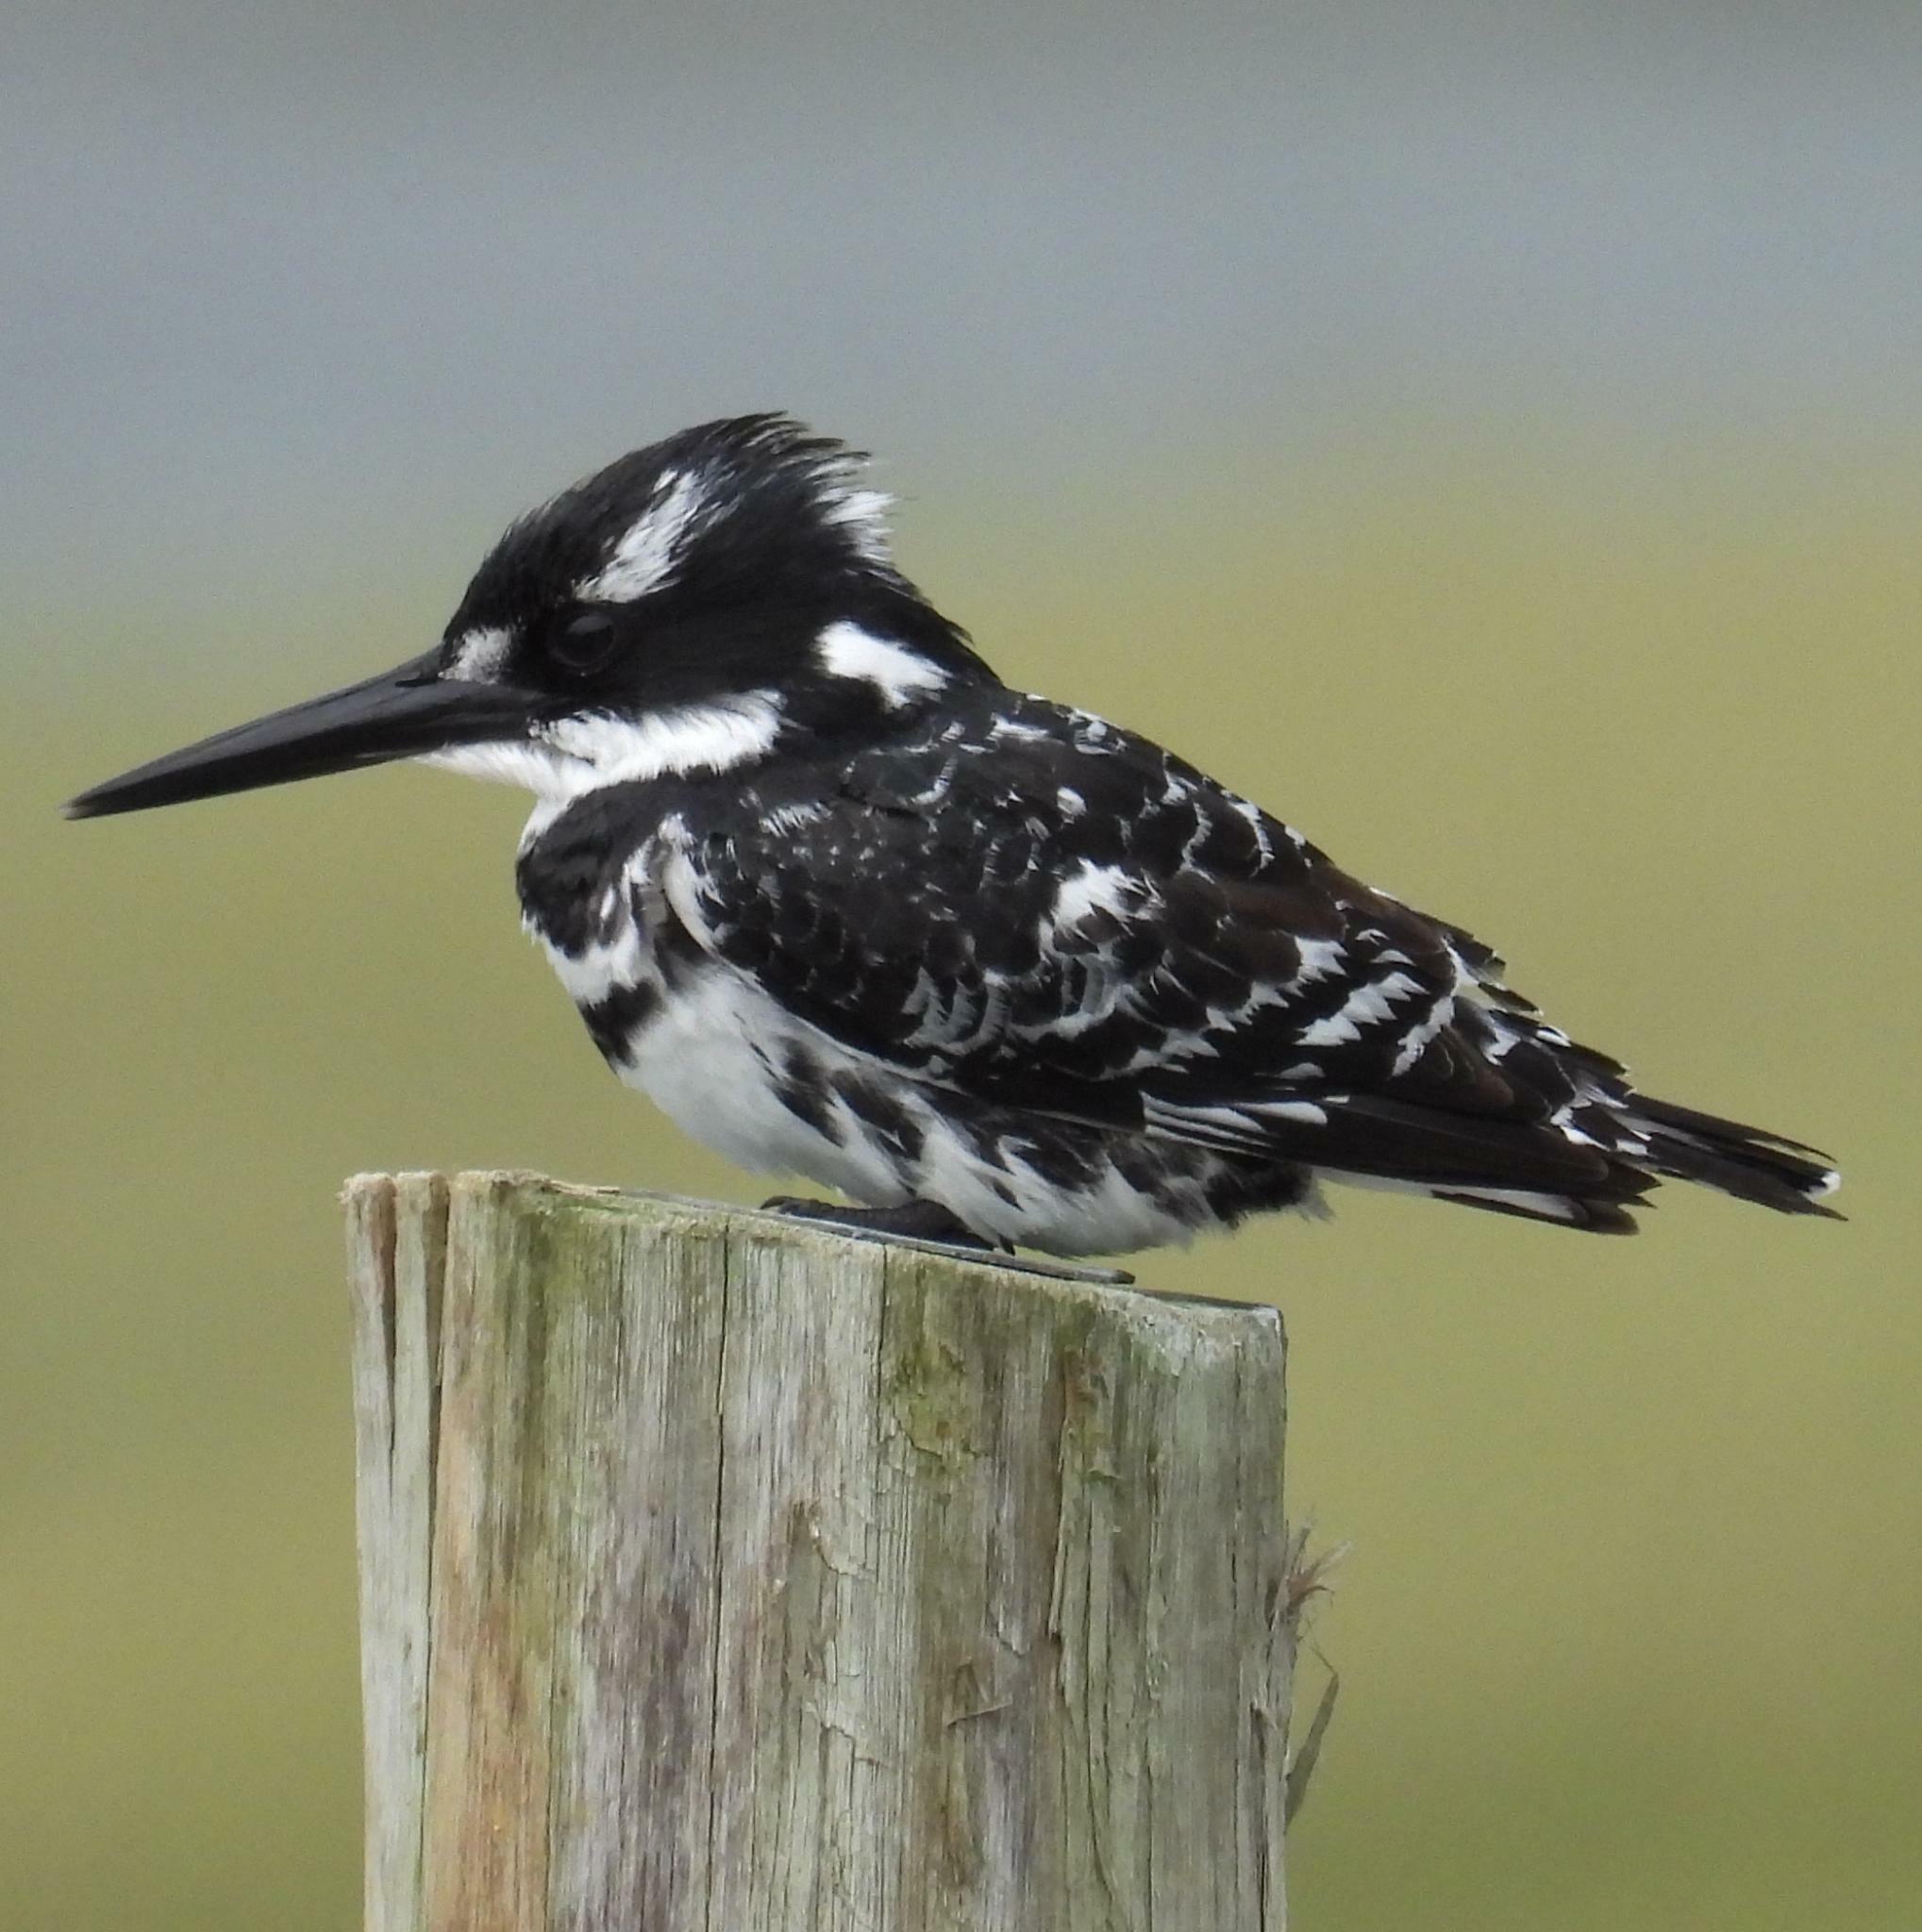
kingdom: Animalia
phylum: Chordata
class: Aves
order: Coraciiformes
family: Alcedinidae
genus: Ceryle
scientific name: Ceryle rudis
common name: Pied kingfisher
